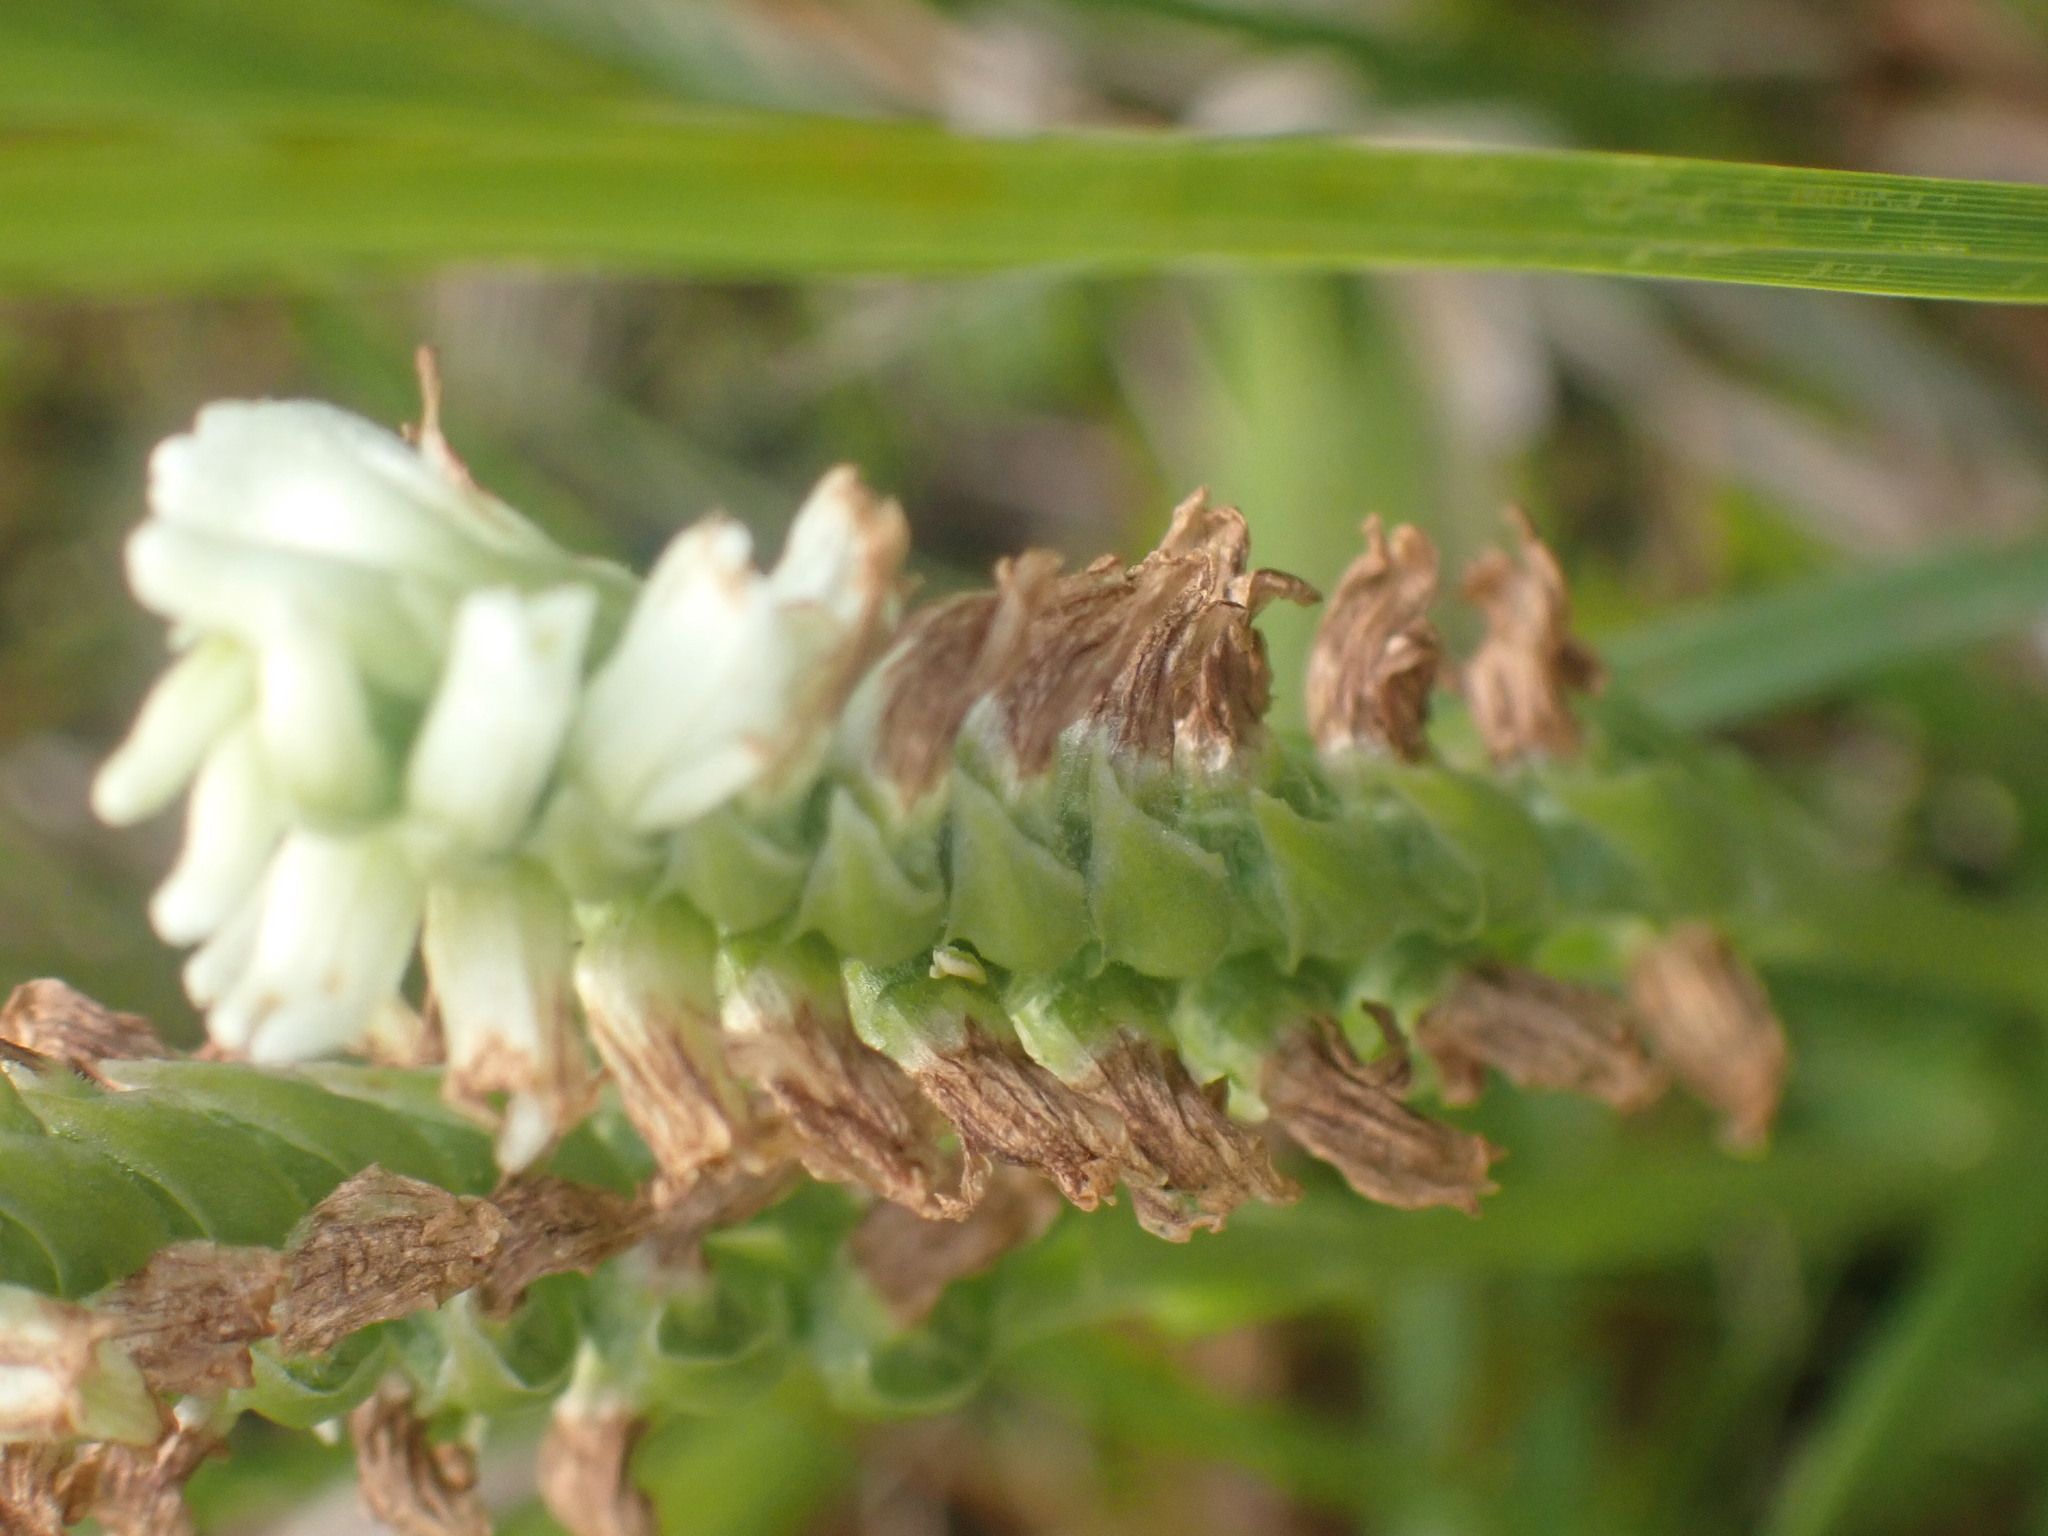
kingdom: Plantae
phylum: Tracheophyta
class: Liliopsida
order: Asparagales
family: Orchidaceae
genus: Spiranthes
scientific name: Spiranthes romanzoffiana
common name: Irish lady's-tresses
